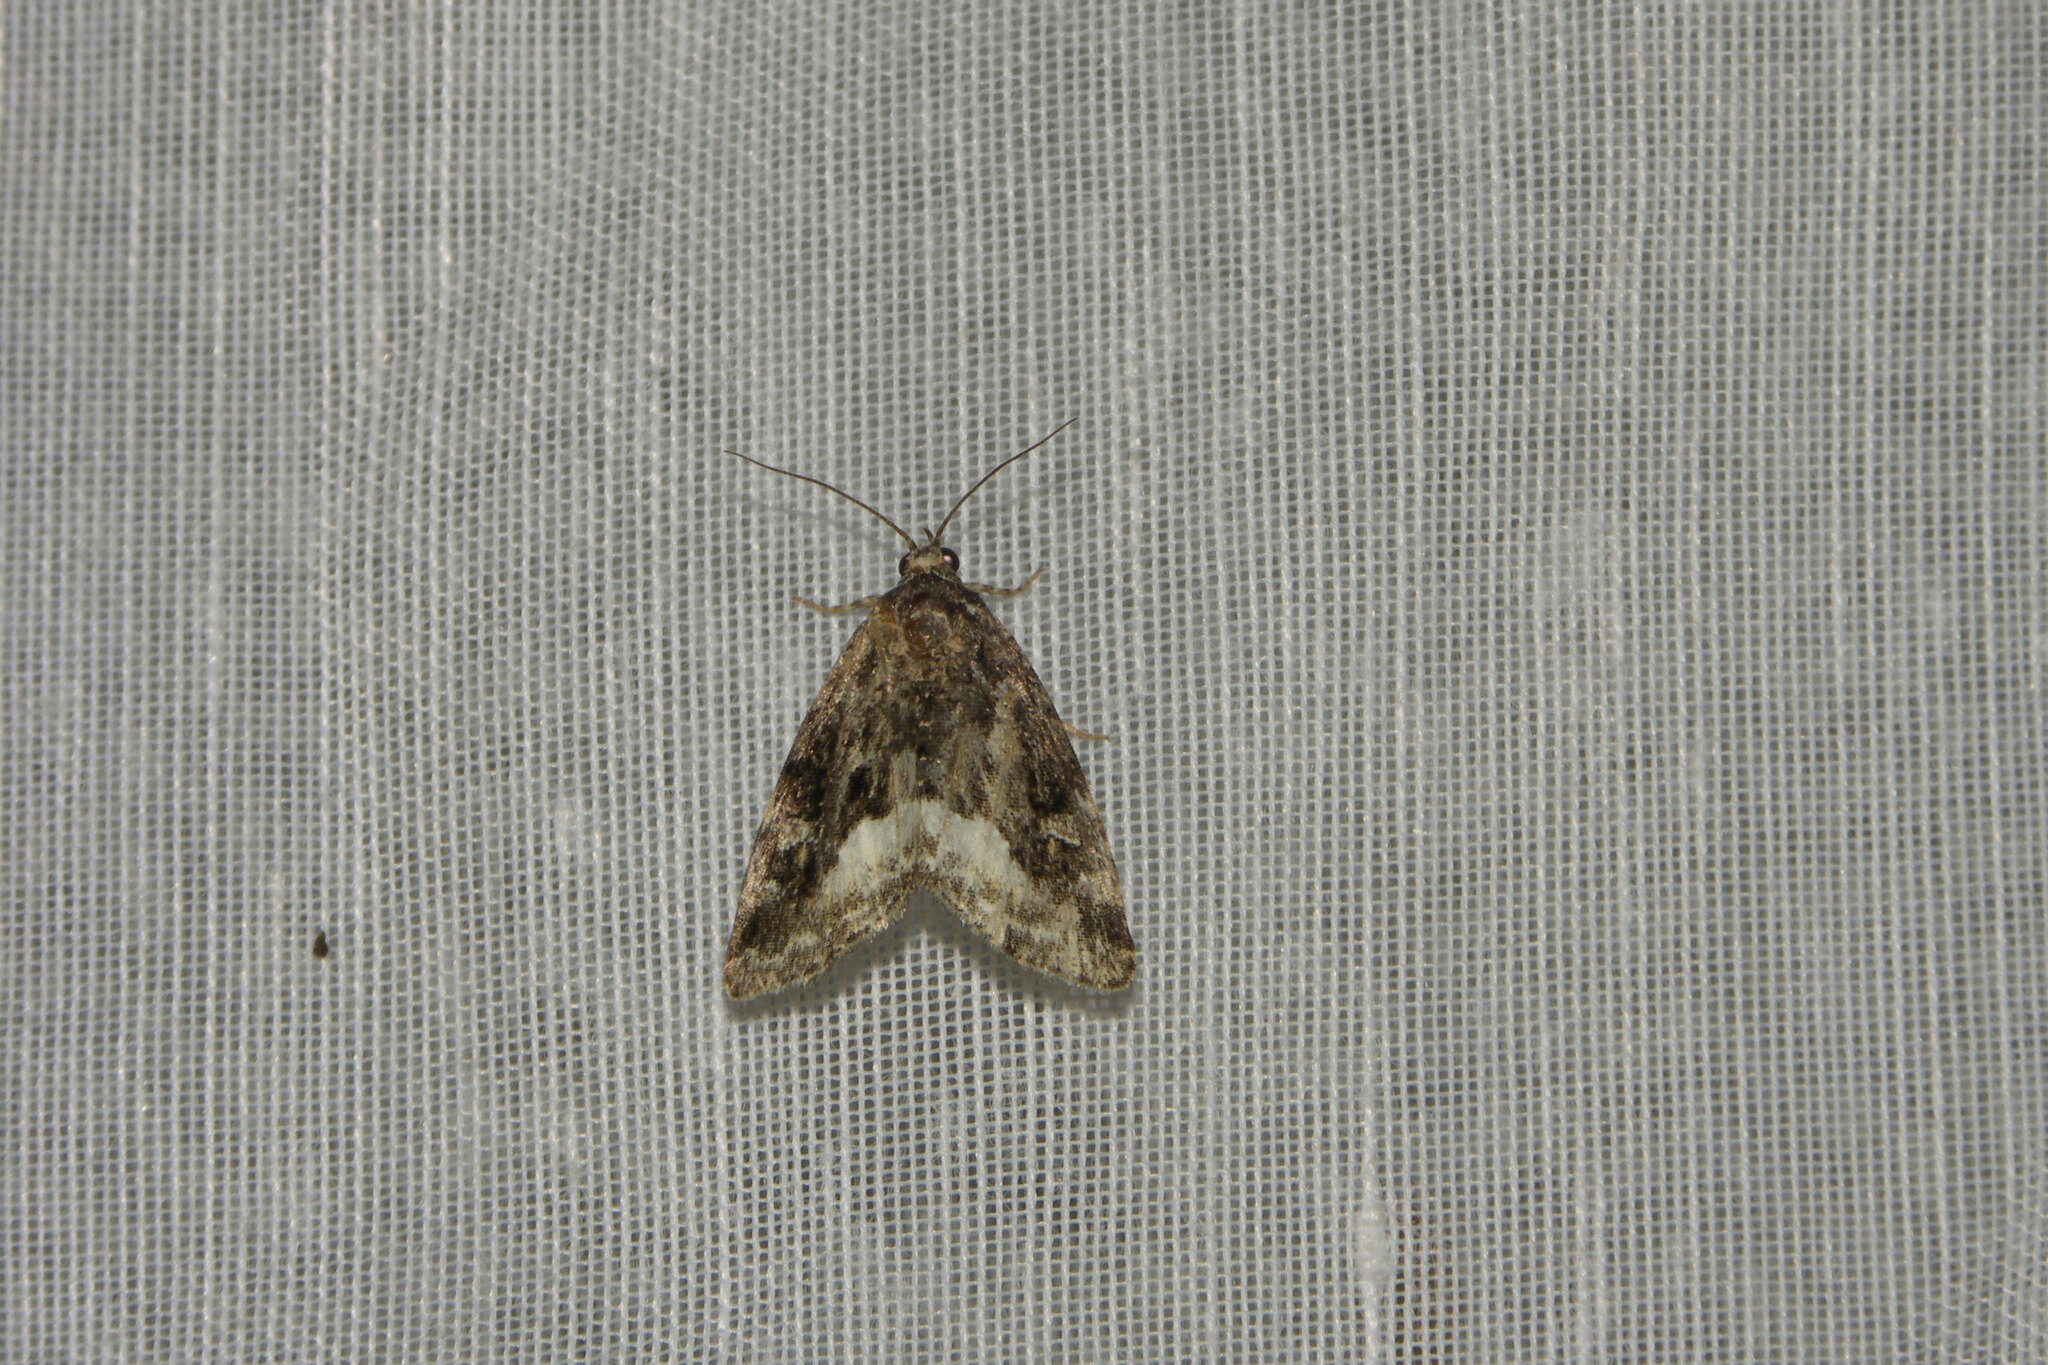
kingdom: Animalia
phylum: Arthropoda
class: Insecta
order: Lepidoptera
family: Noctuidae
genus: Deltote
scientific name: Deltote pygarga
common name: Marbled white spot
